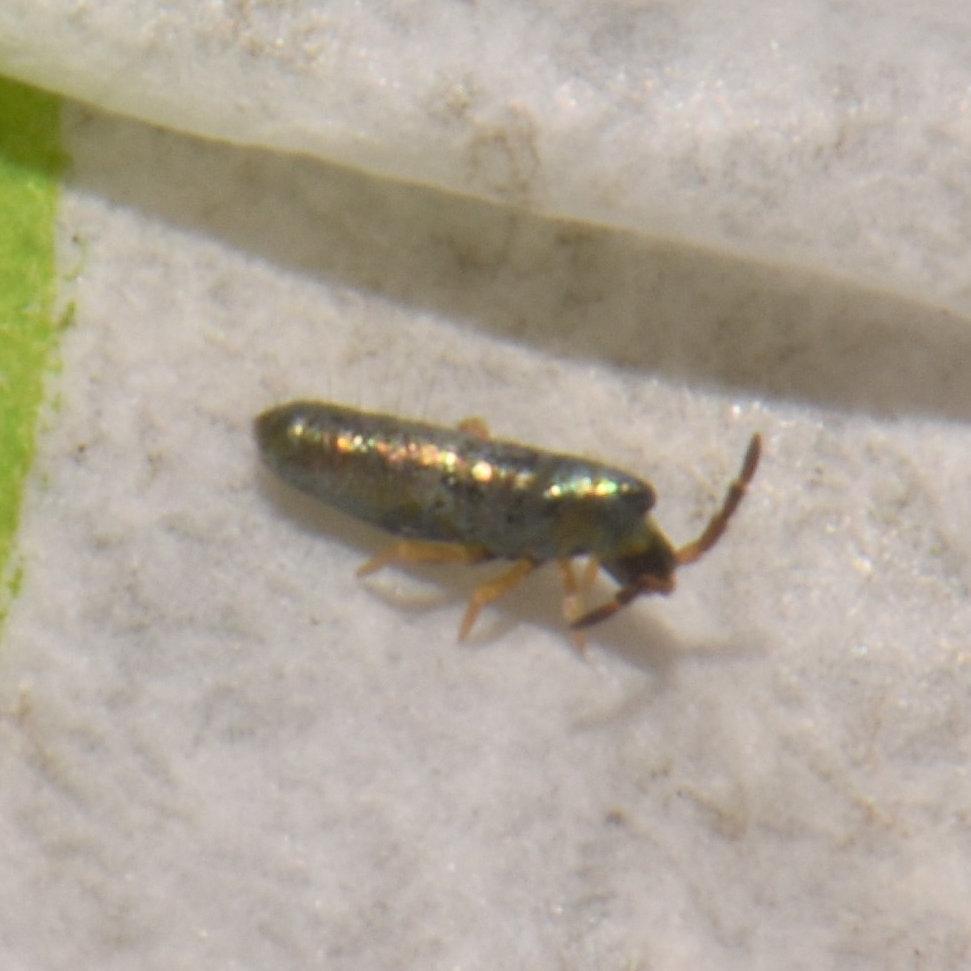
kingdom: Animalia
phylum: Arthropoda
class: Collembola
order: Entomobryomorpha
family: Entomobryidae
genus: Lepidocyrtus
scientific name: Lepidocyrtus paradoxus
